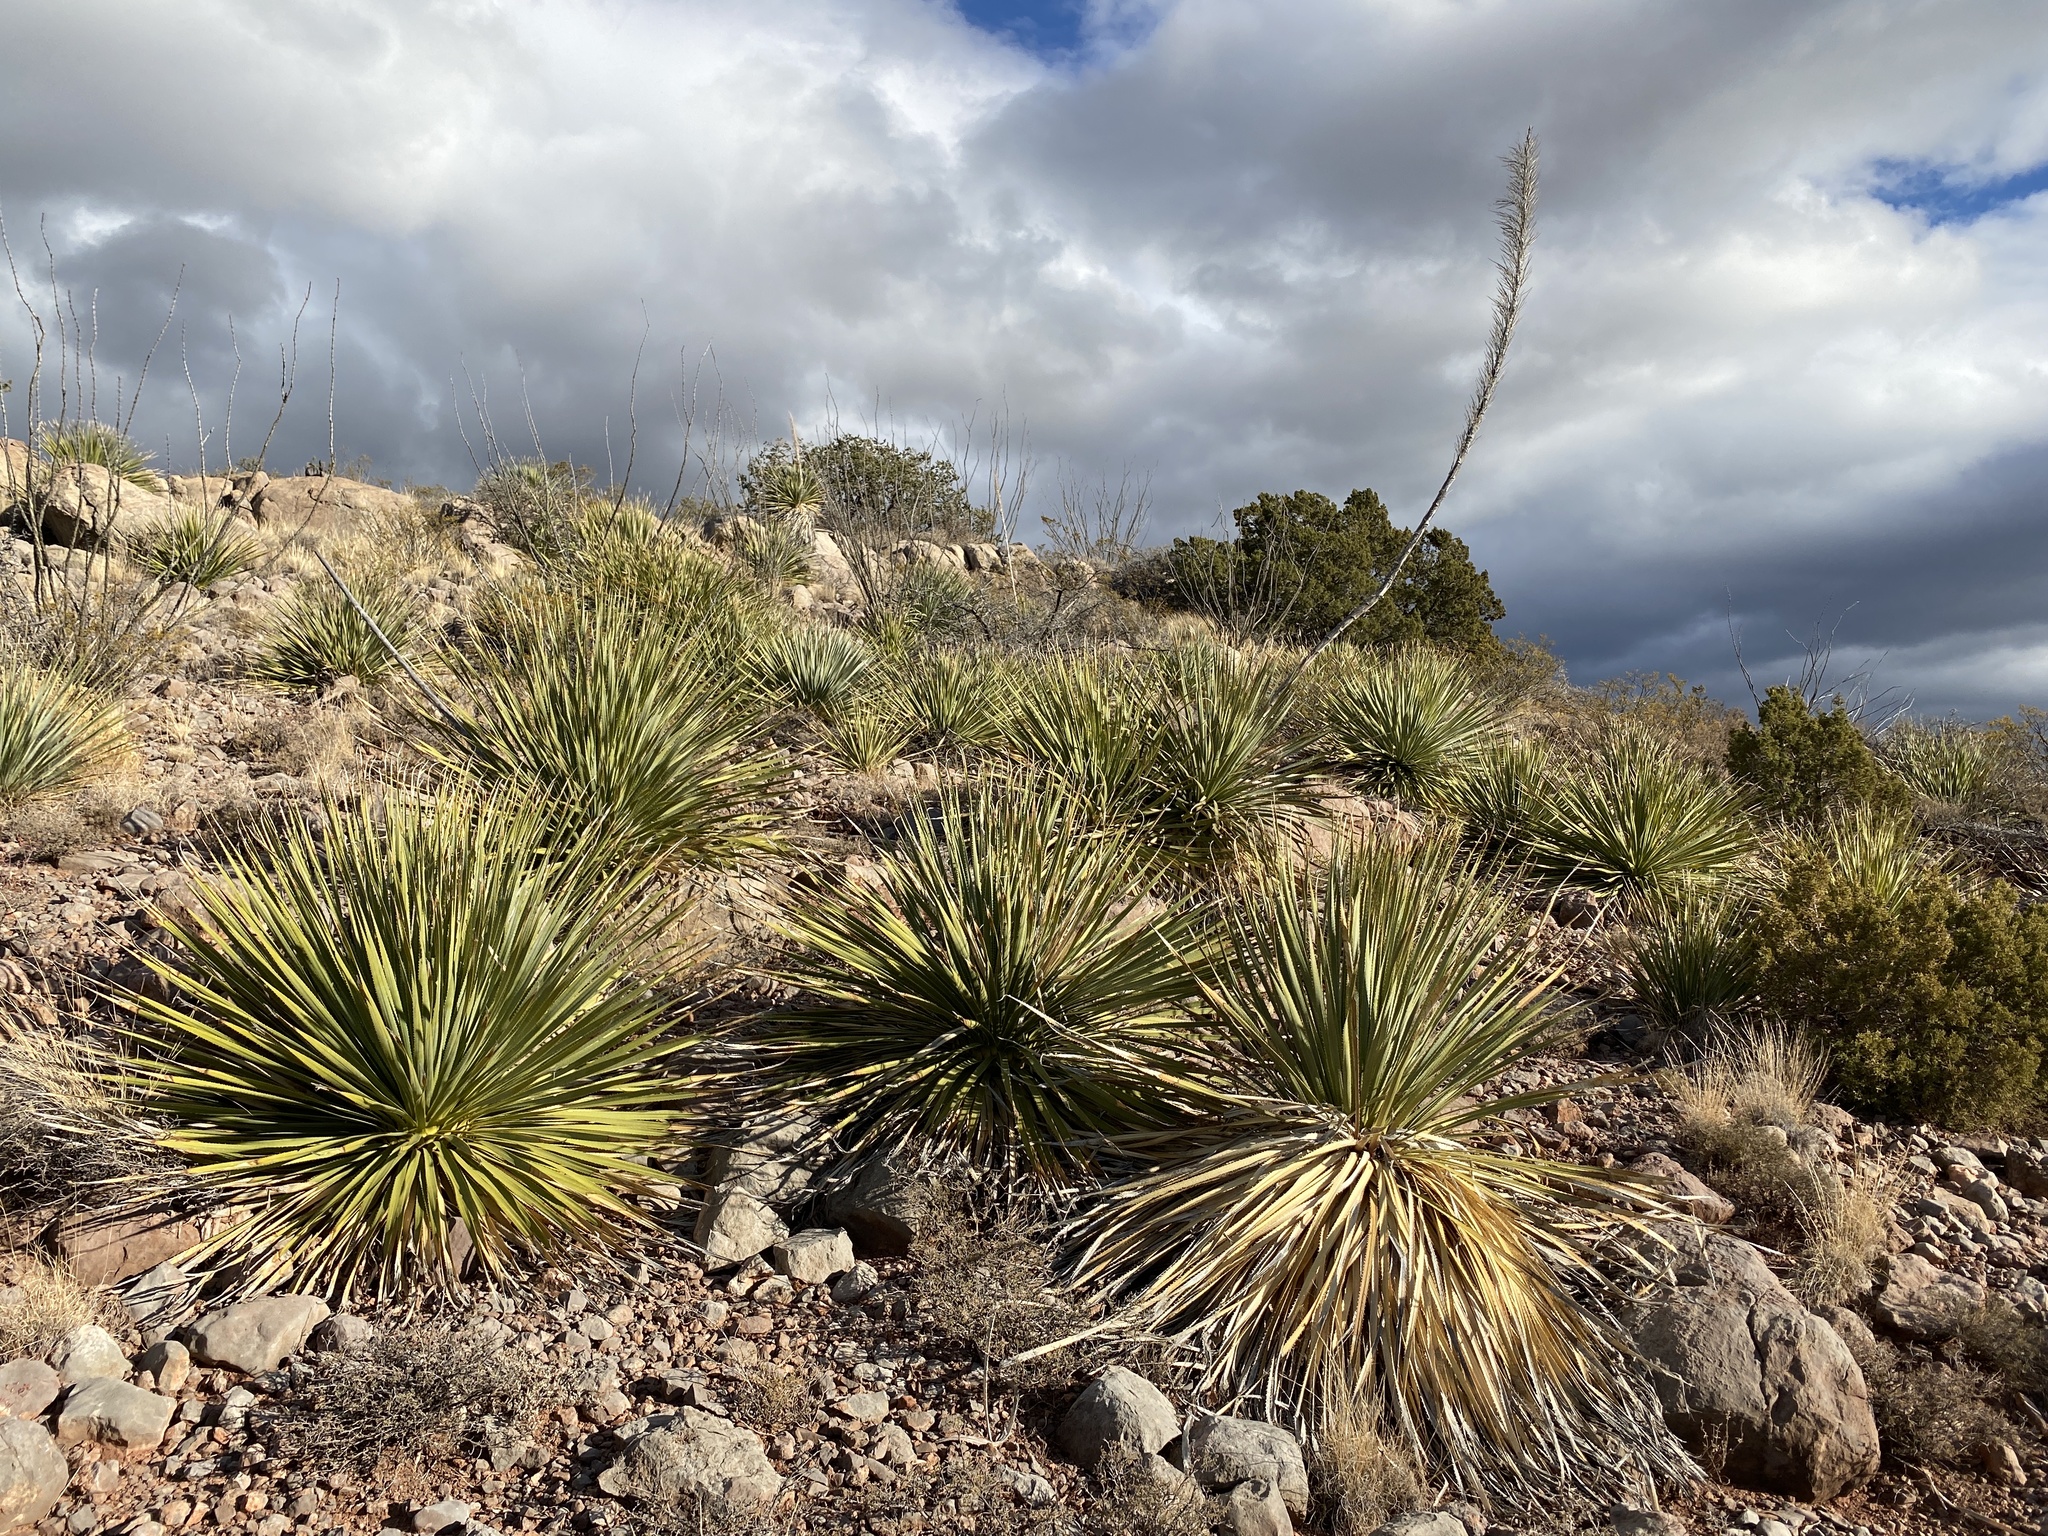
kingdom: Plantae
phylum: Tracheophyta
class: Liliopsida
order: Asparagales
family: Asparagaceae
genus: Dasylirion
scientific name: Dasylirion wheeleri
